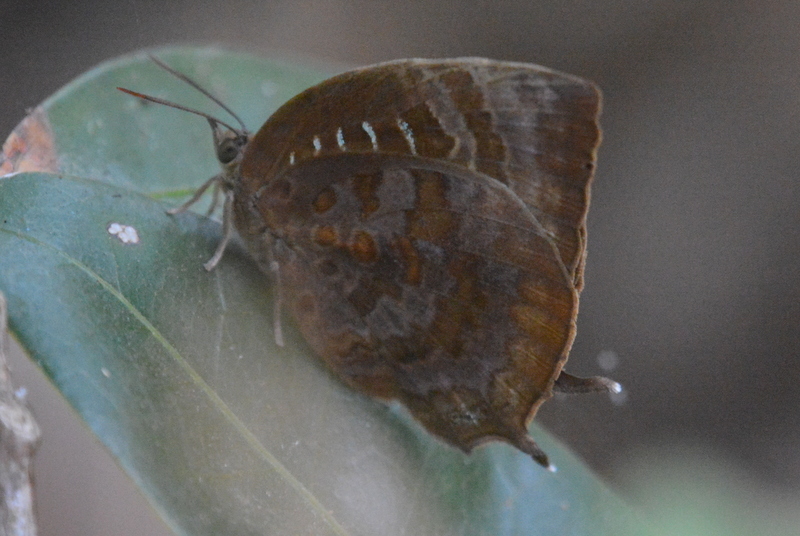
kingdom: Animalia
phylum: Arthropoda
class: Insecta
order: Lepidoptera
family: Lycaenidae
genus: Arhopala
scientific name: Arhopala centaurus
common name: Dull oak-blue
